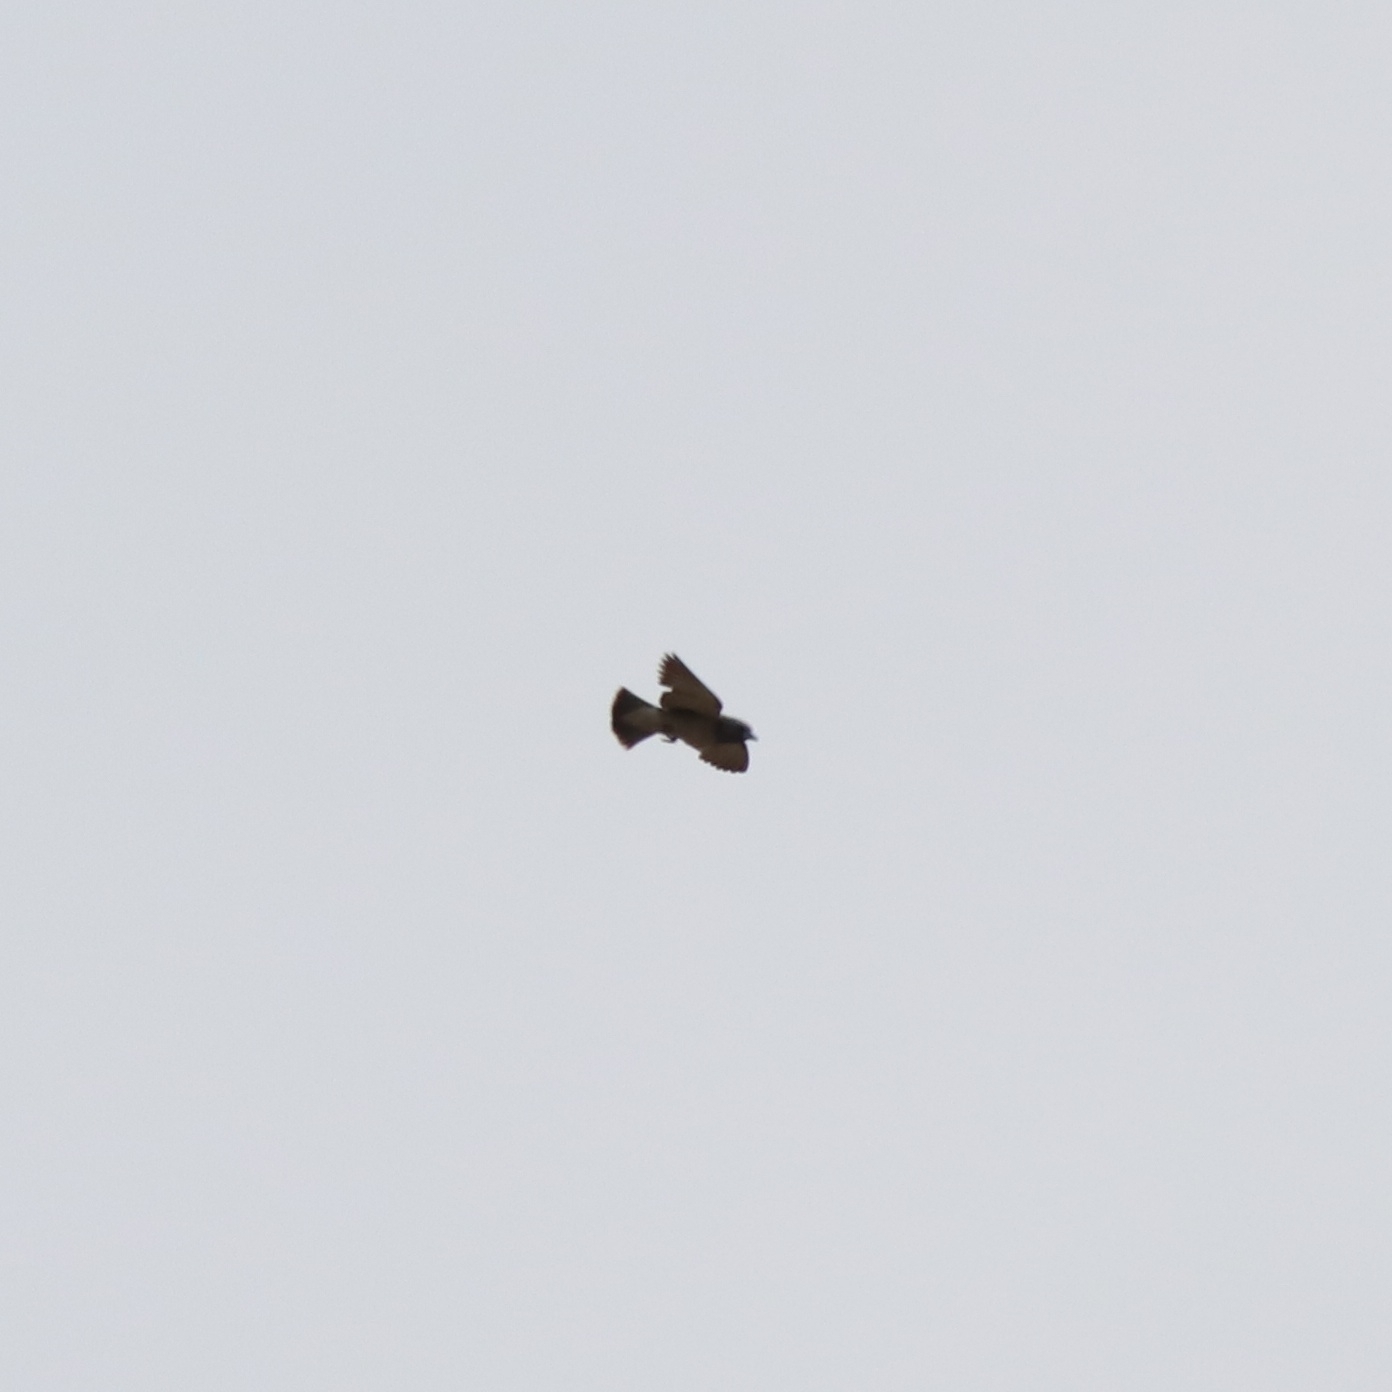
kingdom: Animalia
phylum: Chordata
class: Aves
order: Passeriformes
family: Artamidae
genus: Artamus
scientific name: Artamus fuscus
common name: Ashy woodswallow
